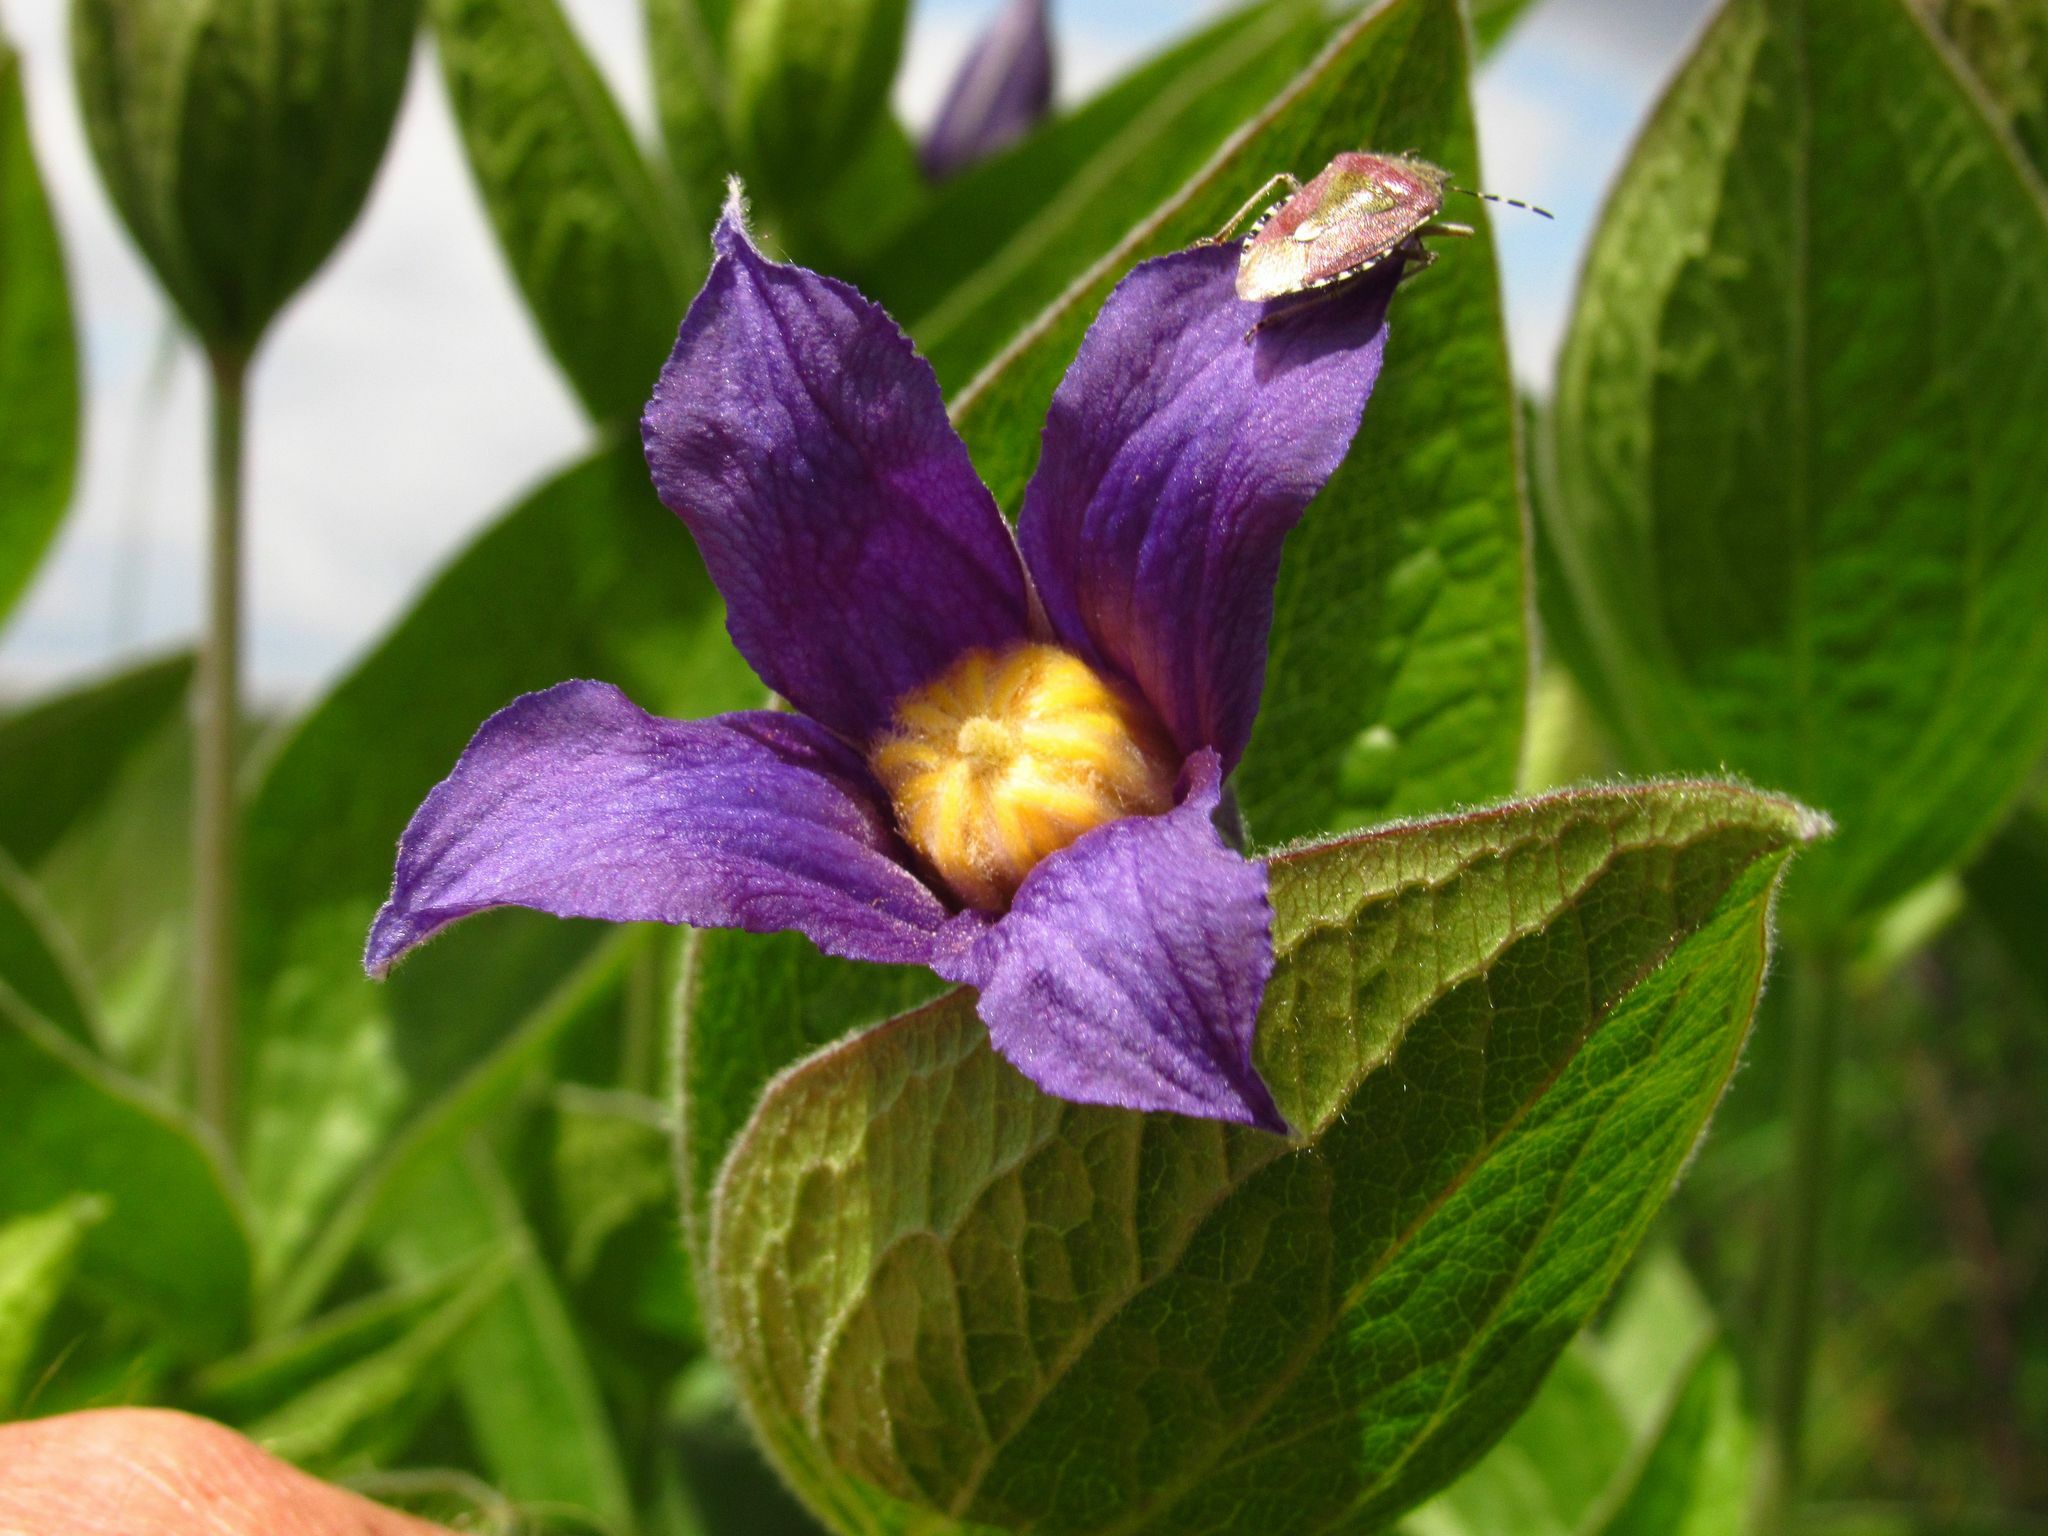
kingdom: Plantae
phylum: Tracheophyta
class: Magnoliopsida
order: Ranunculales
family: Ranunculaceae
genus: Clematis
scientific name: Clematis integrifolia
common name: Solitary clematis
